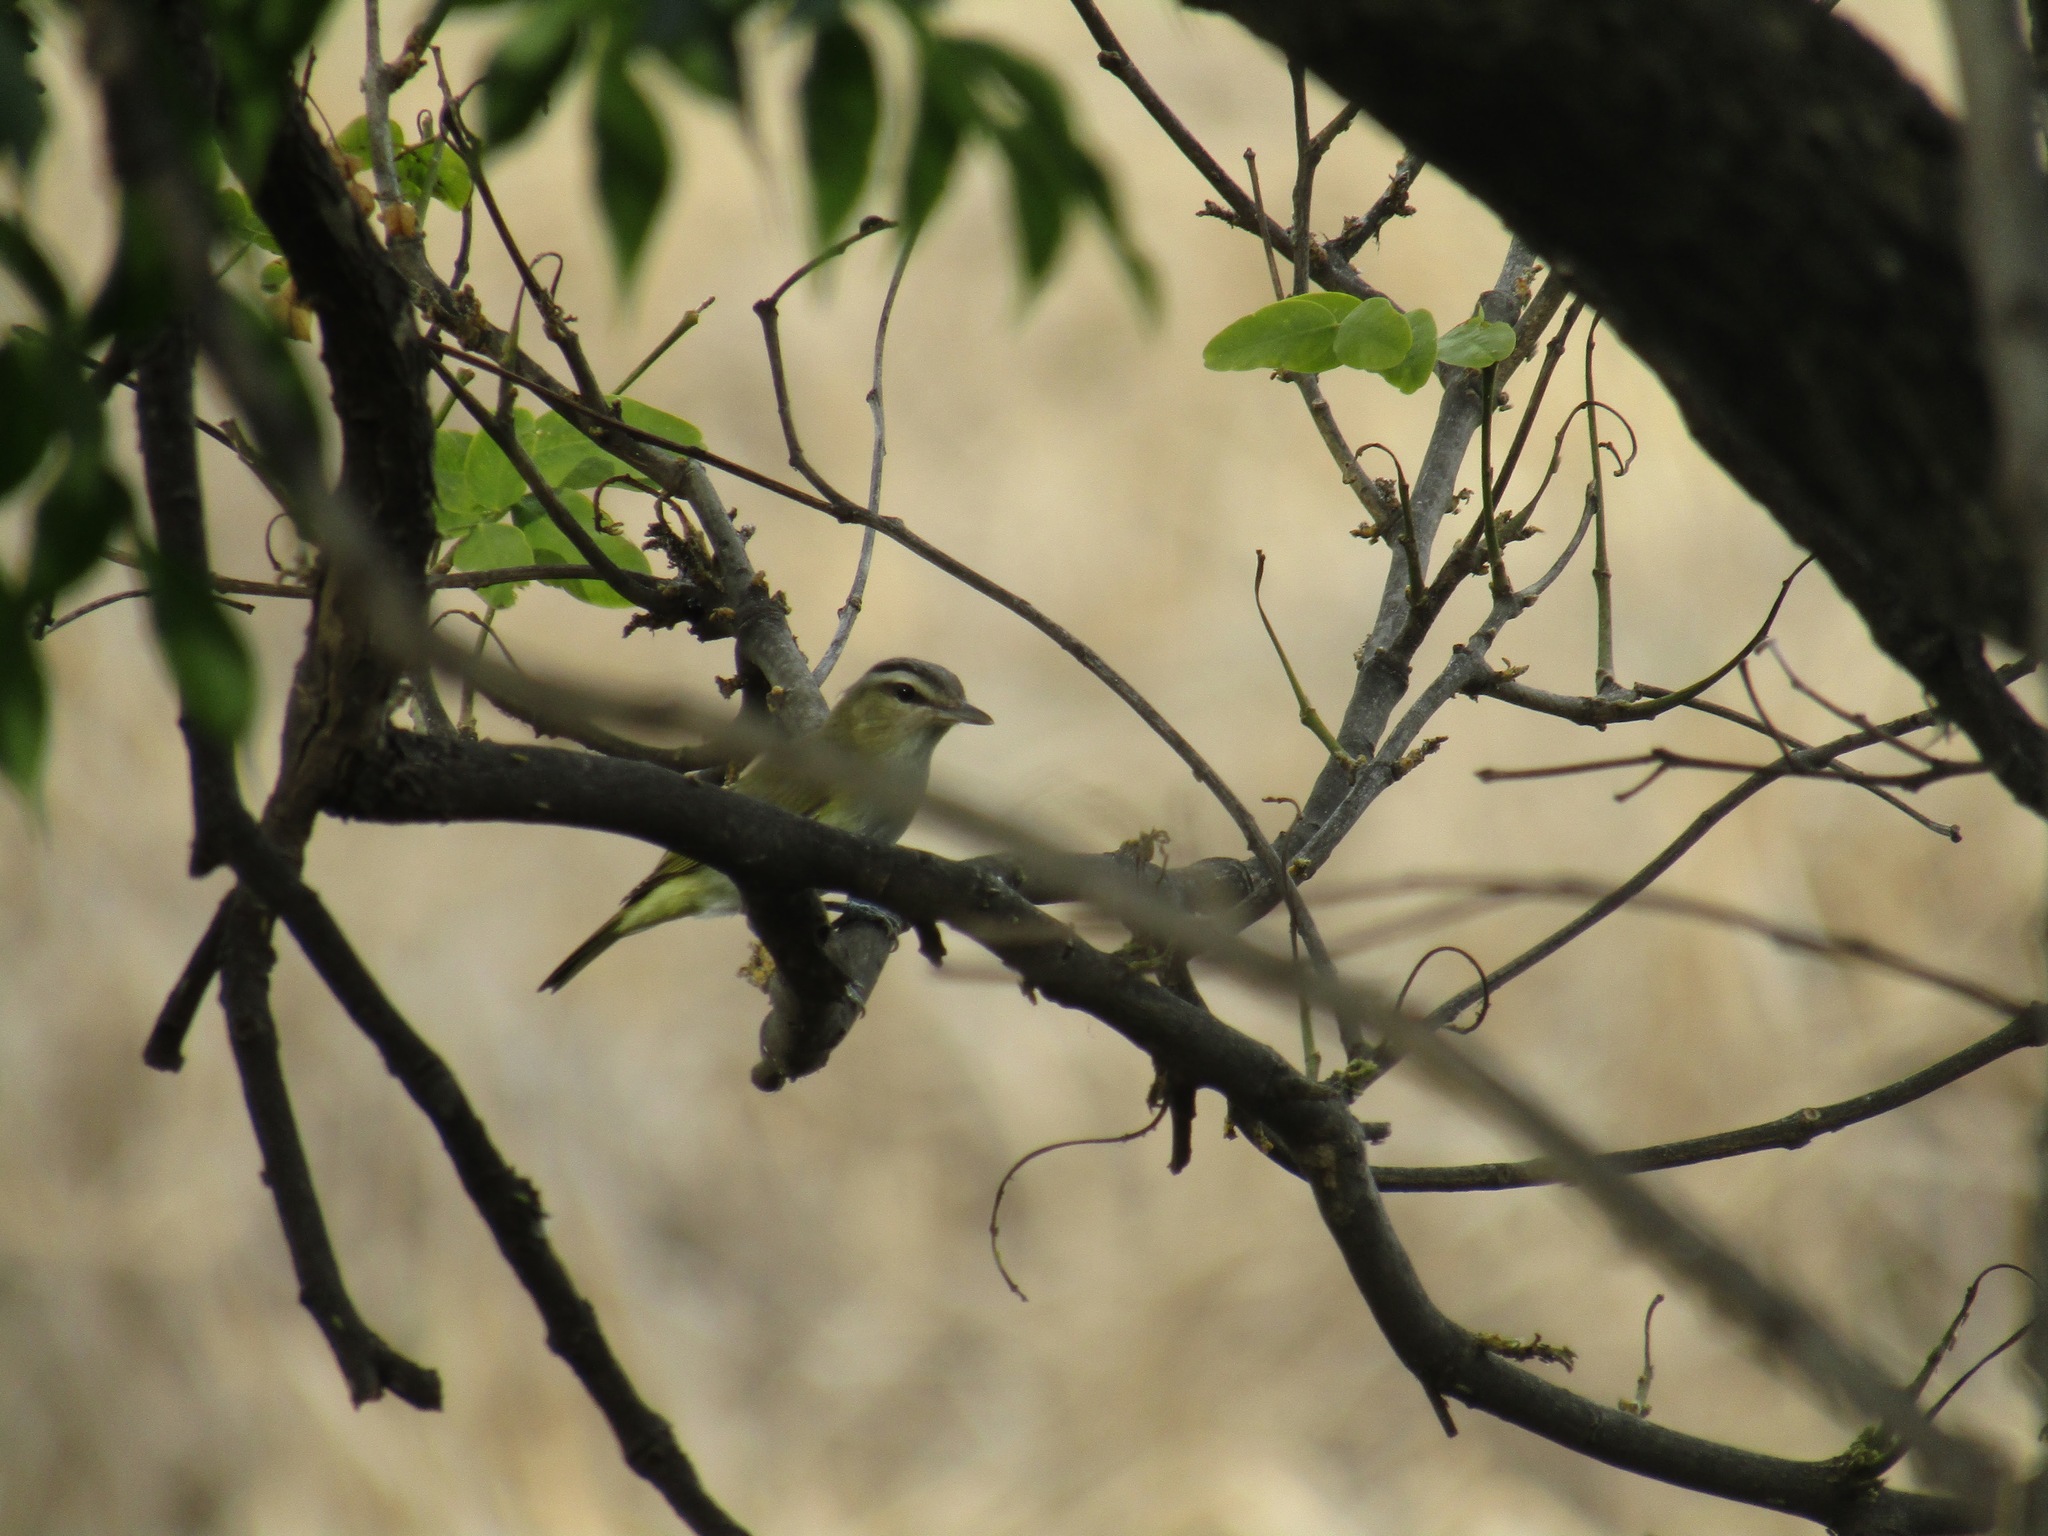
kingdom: Animalia
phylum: Chordata
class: Aves
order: Passeriformes
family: Vireonidae
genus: Vireo
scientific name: Vireo olivaceus
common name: Red-eyed vireo
